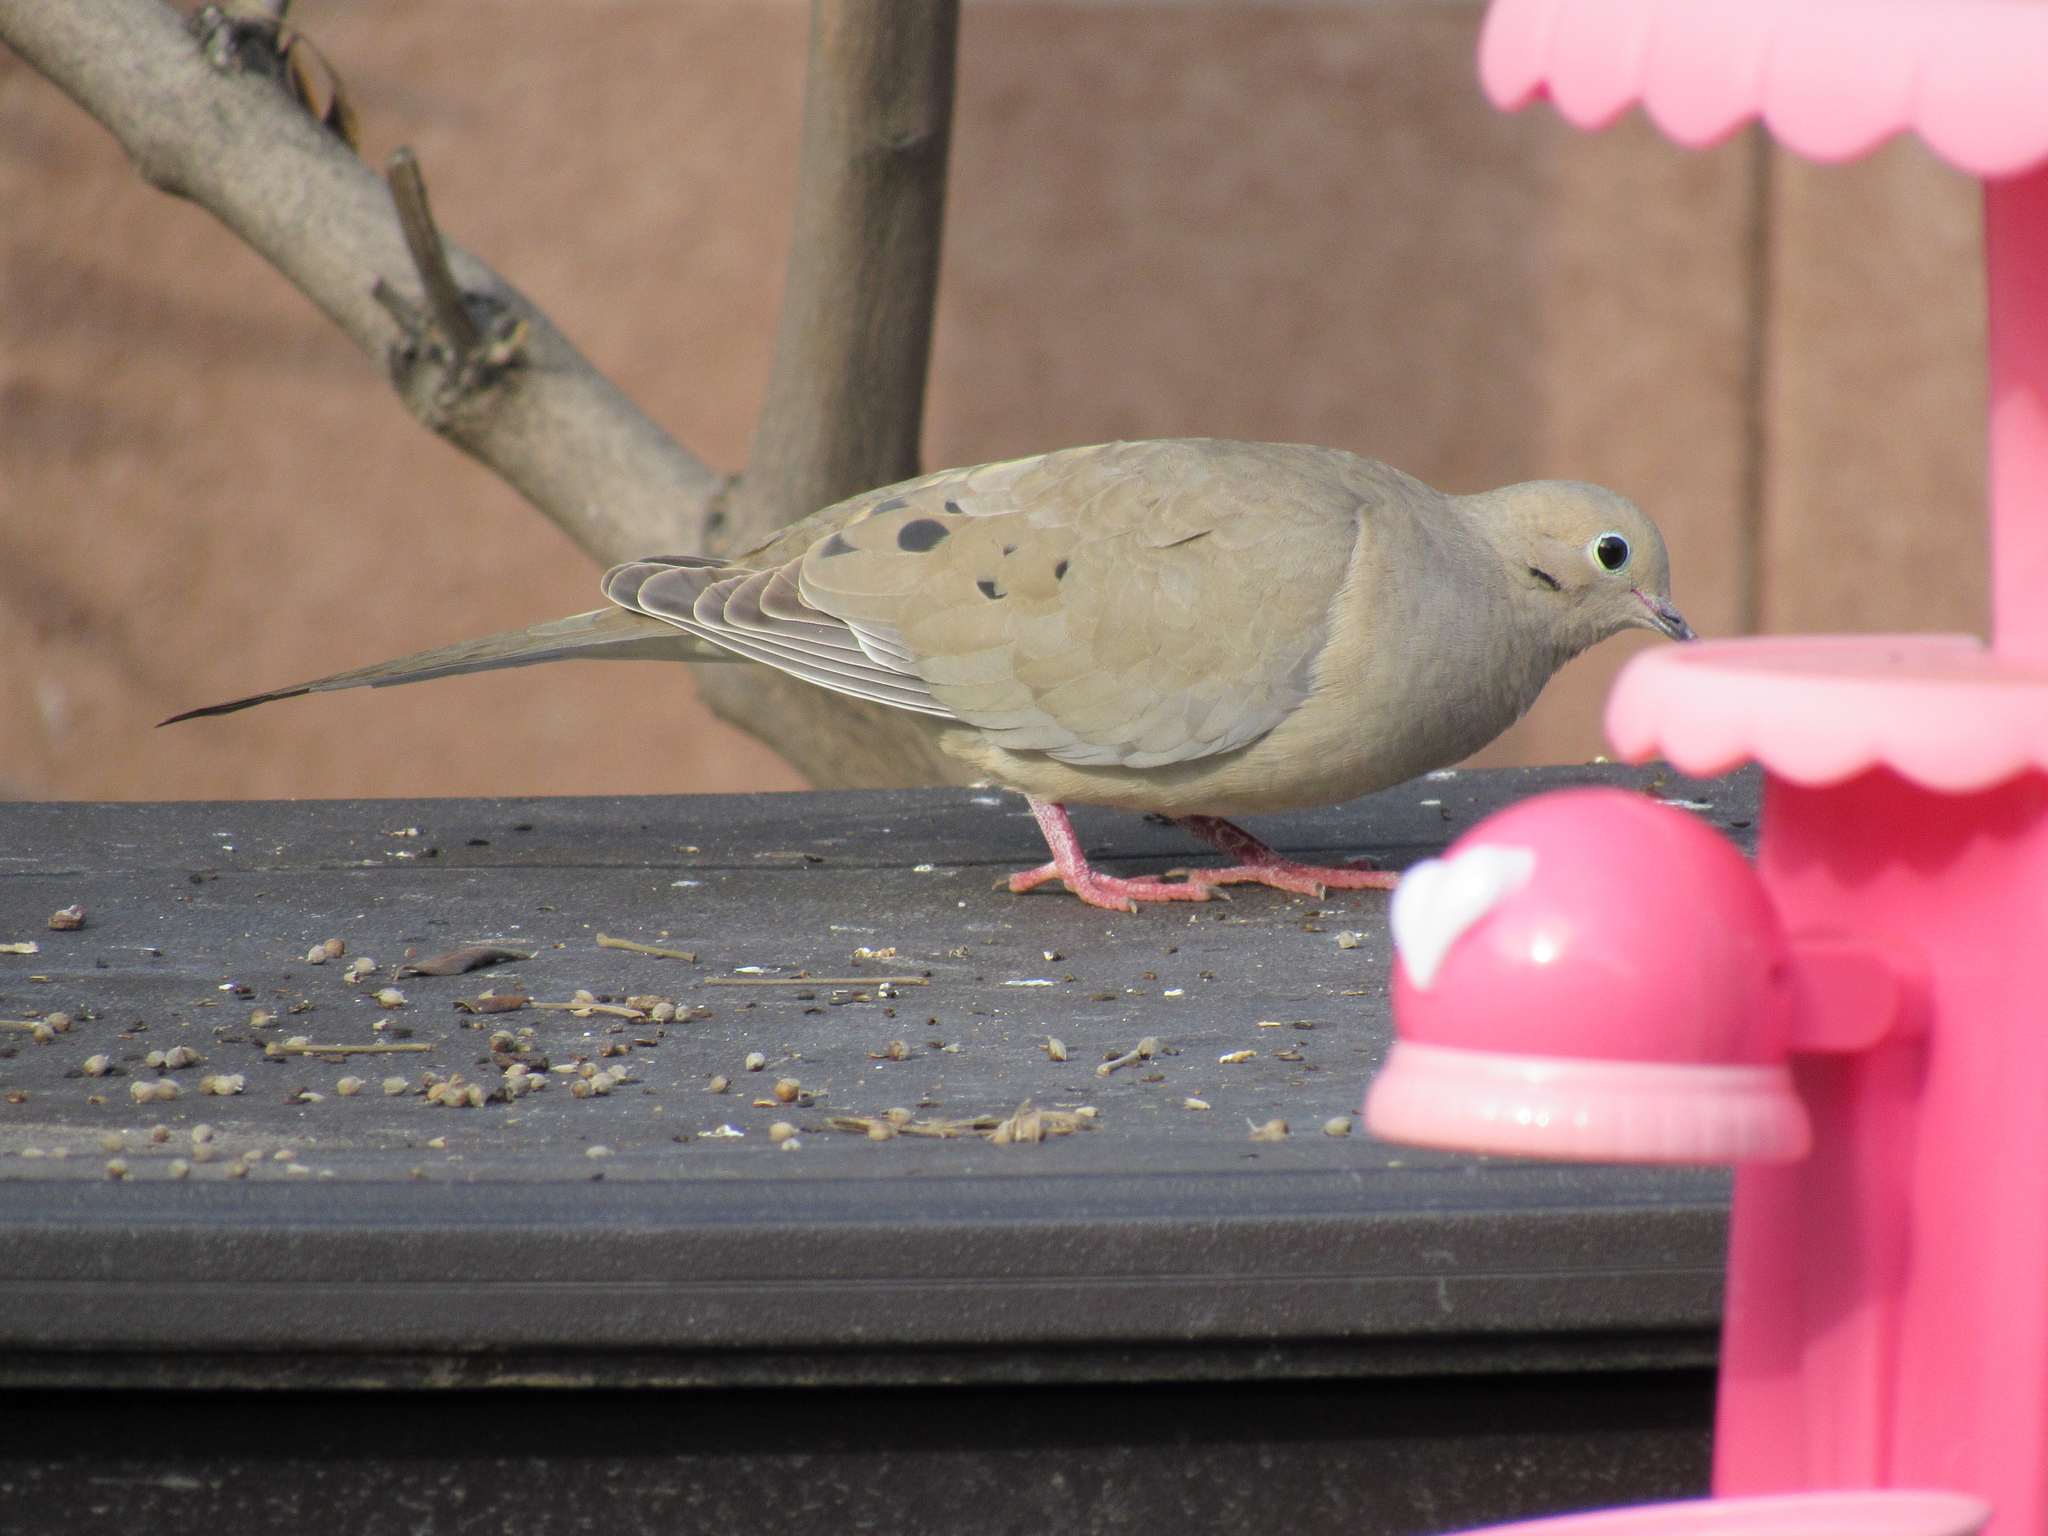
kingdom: Animalia
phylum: Chordata
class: Aves
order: Columbiformes
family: Columbidae
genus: Zenaida
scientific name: Zenaida macroura
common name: Mourning dove
